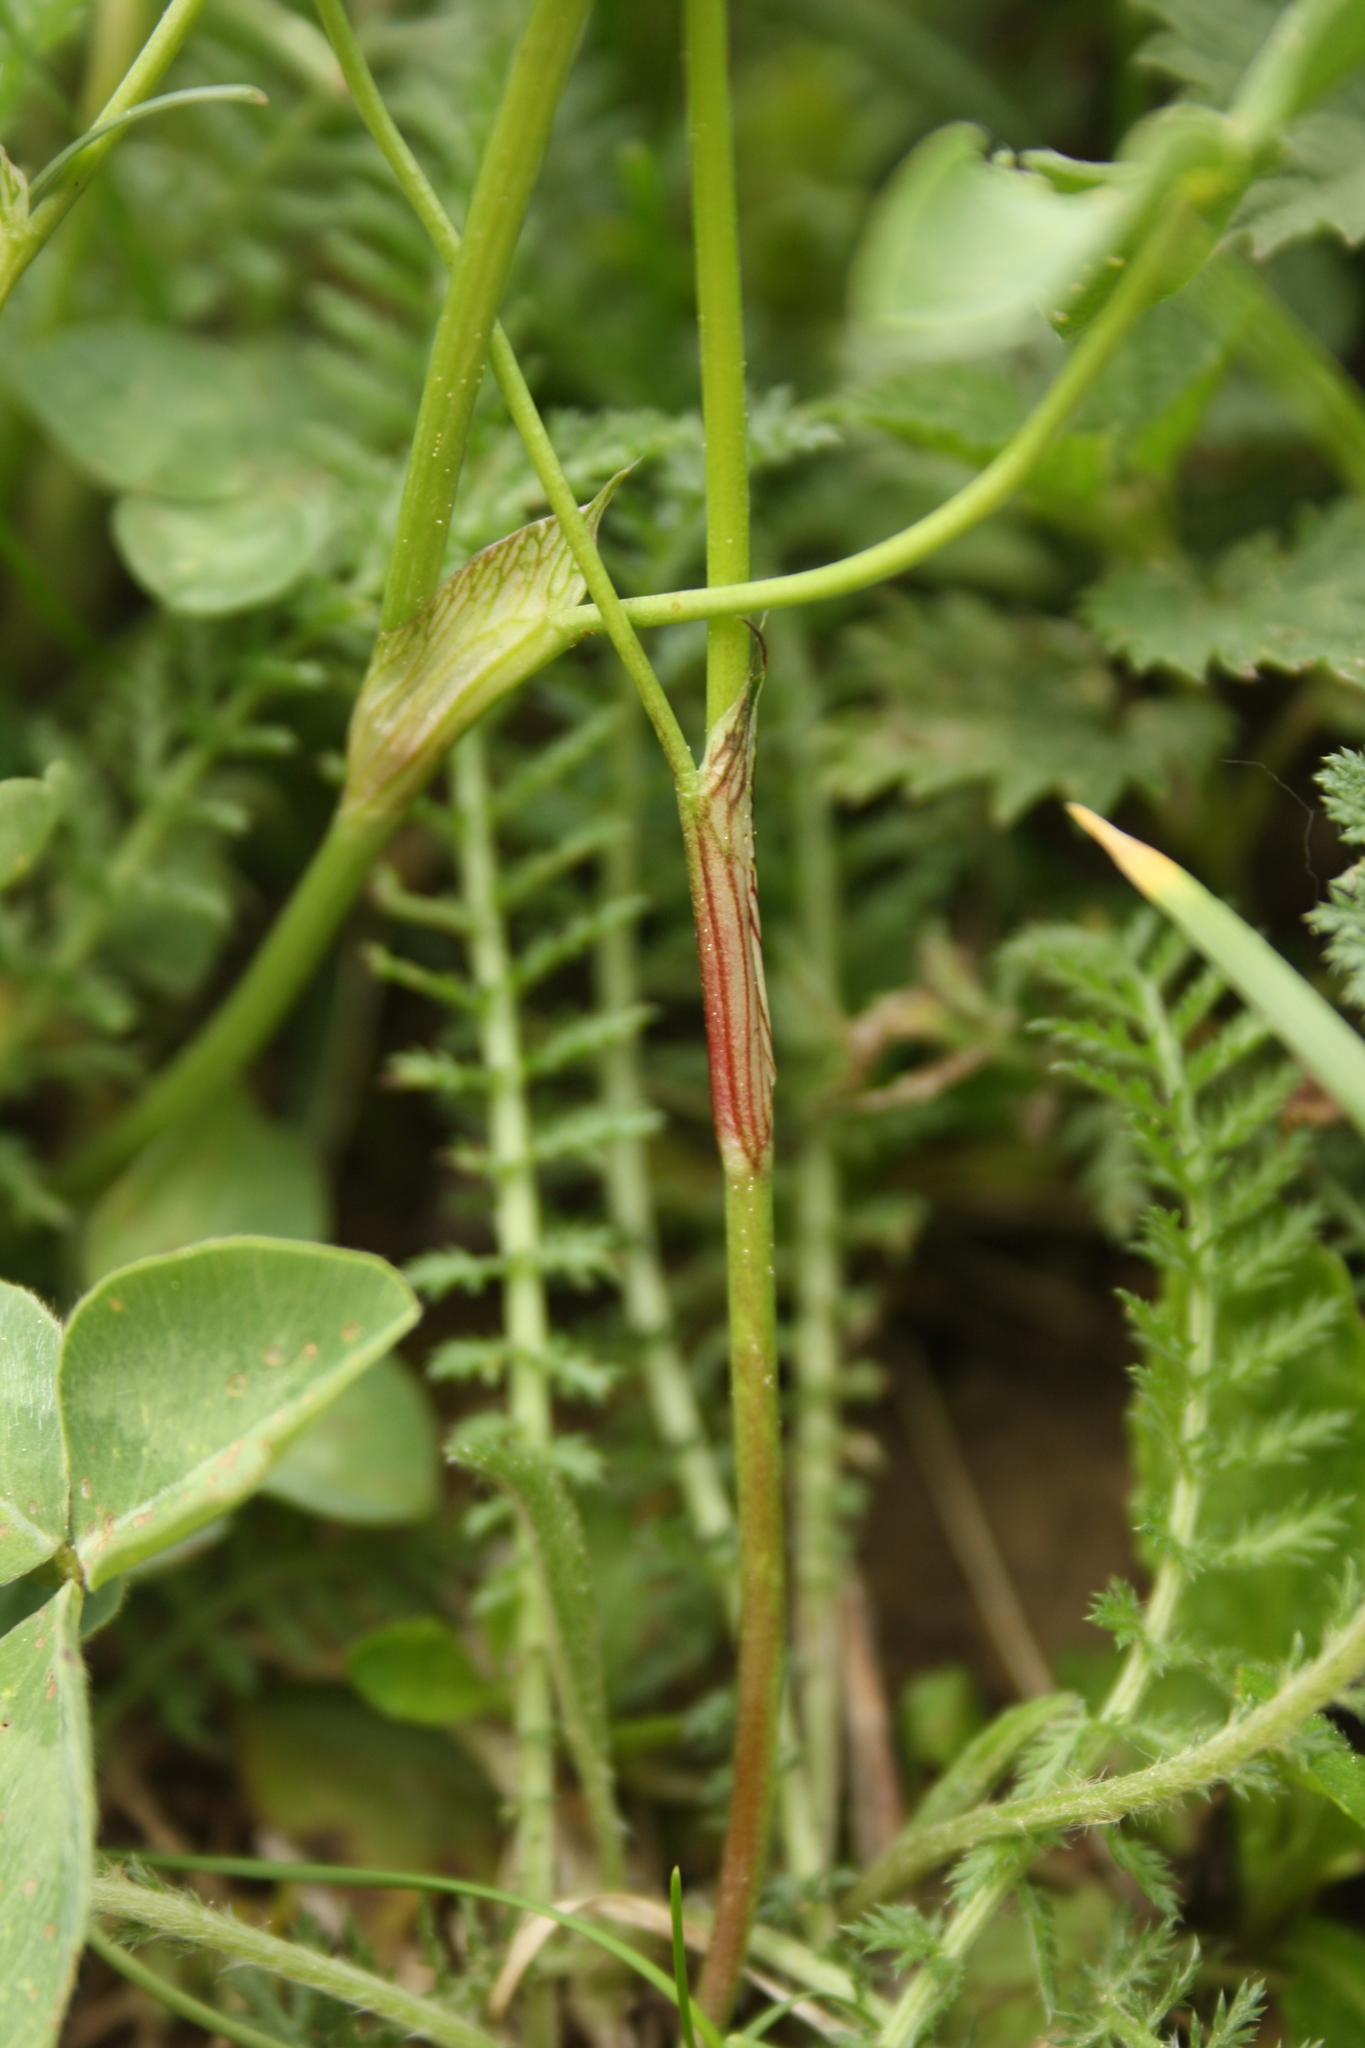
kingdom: Plantae
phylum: Tracheophyta
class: Magnoliopsida
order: Fabales
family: Fabaceae
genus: Trifolium
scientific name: Trifolium pratense
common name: Red clover
